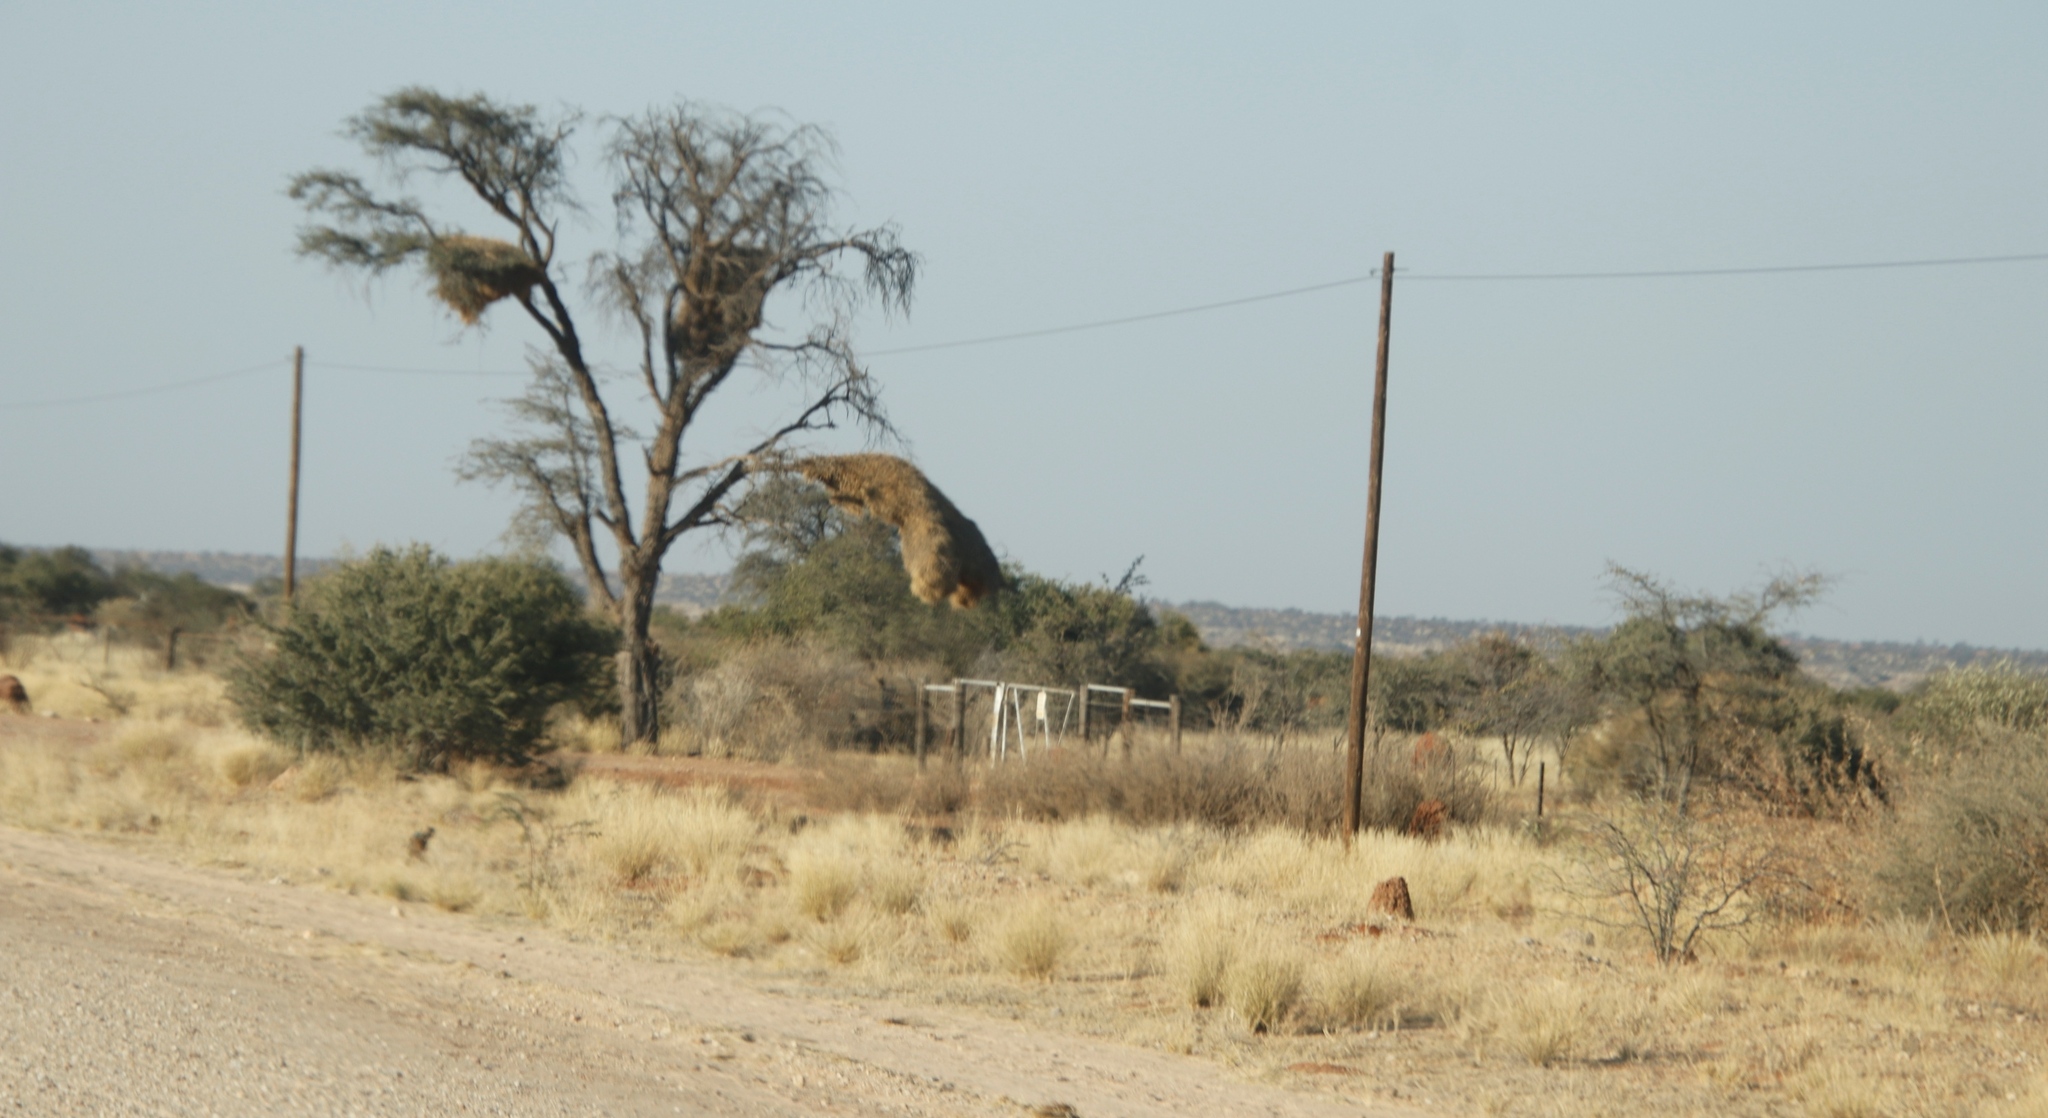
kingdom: Animalia
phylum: Chordata
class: Aves
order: Passeriformes
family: Passeridae
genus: Philetairus
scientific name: Philetairus socius
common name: Sociable weaver
